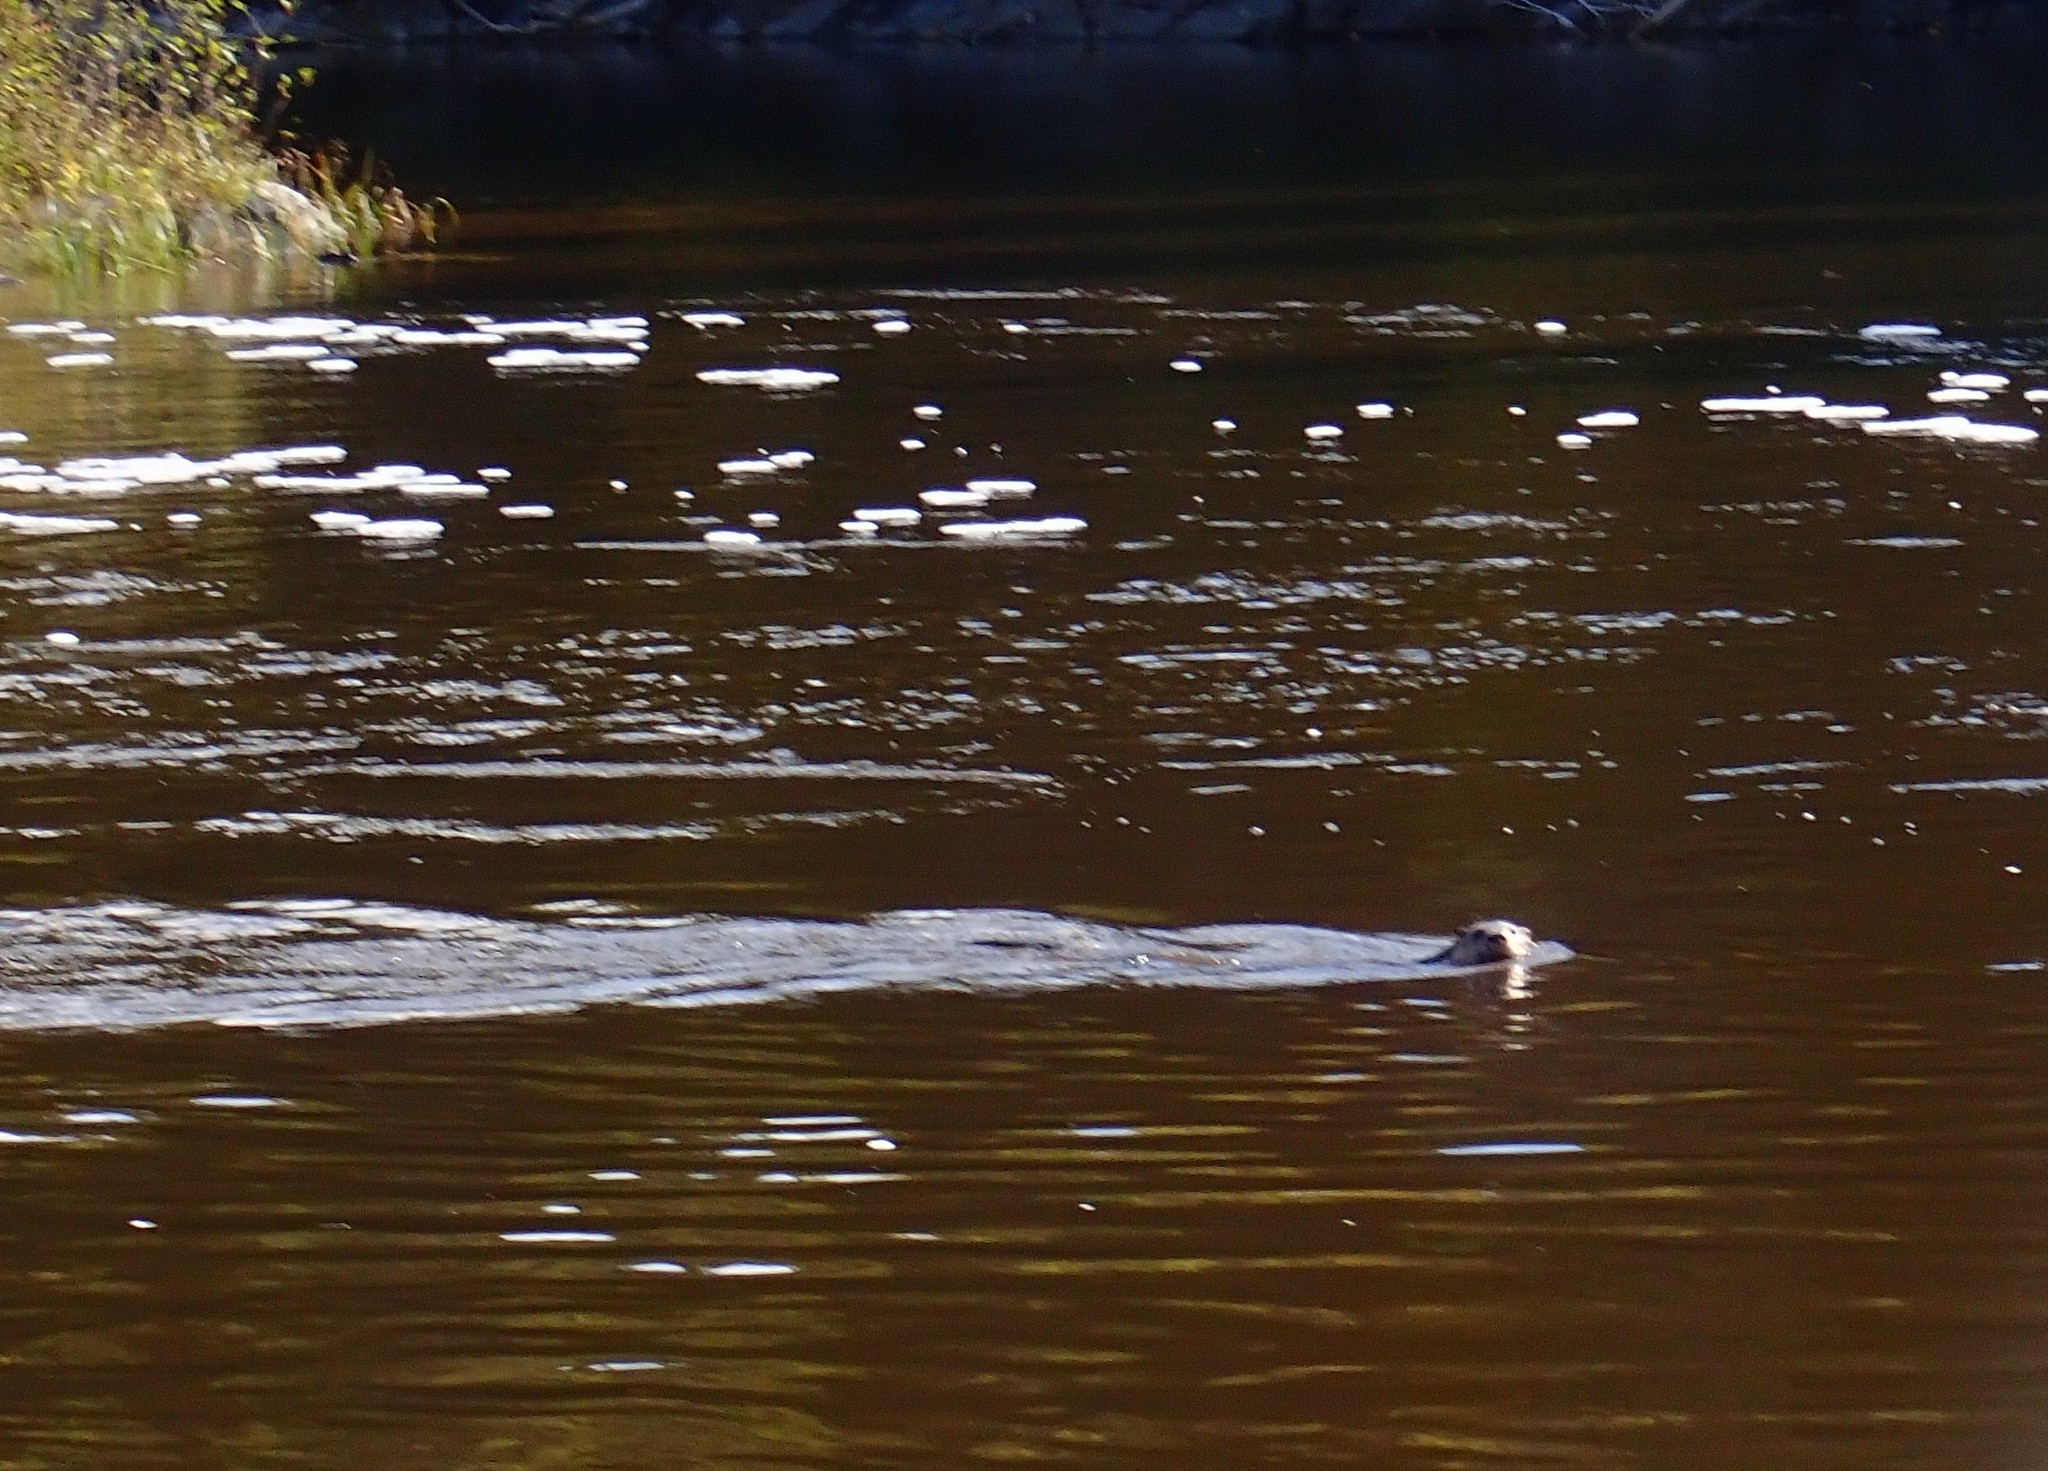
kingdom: Animalia
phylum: Chordata
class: Mammalia
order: Carnivora
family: Mustelidae
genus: Lontra
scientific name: Lontra canadensis
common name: North american river otter
